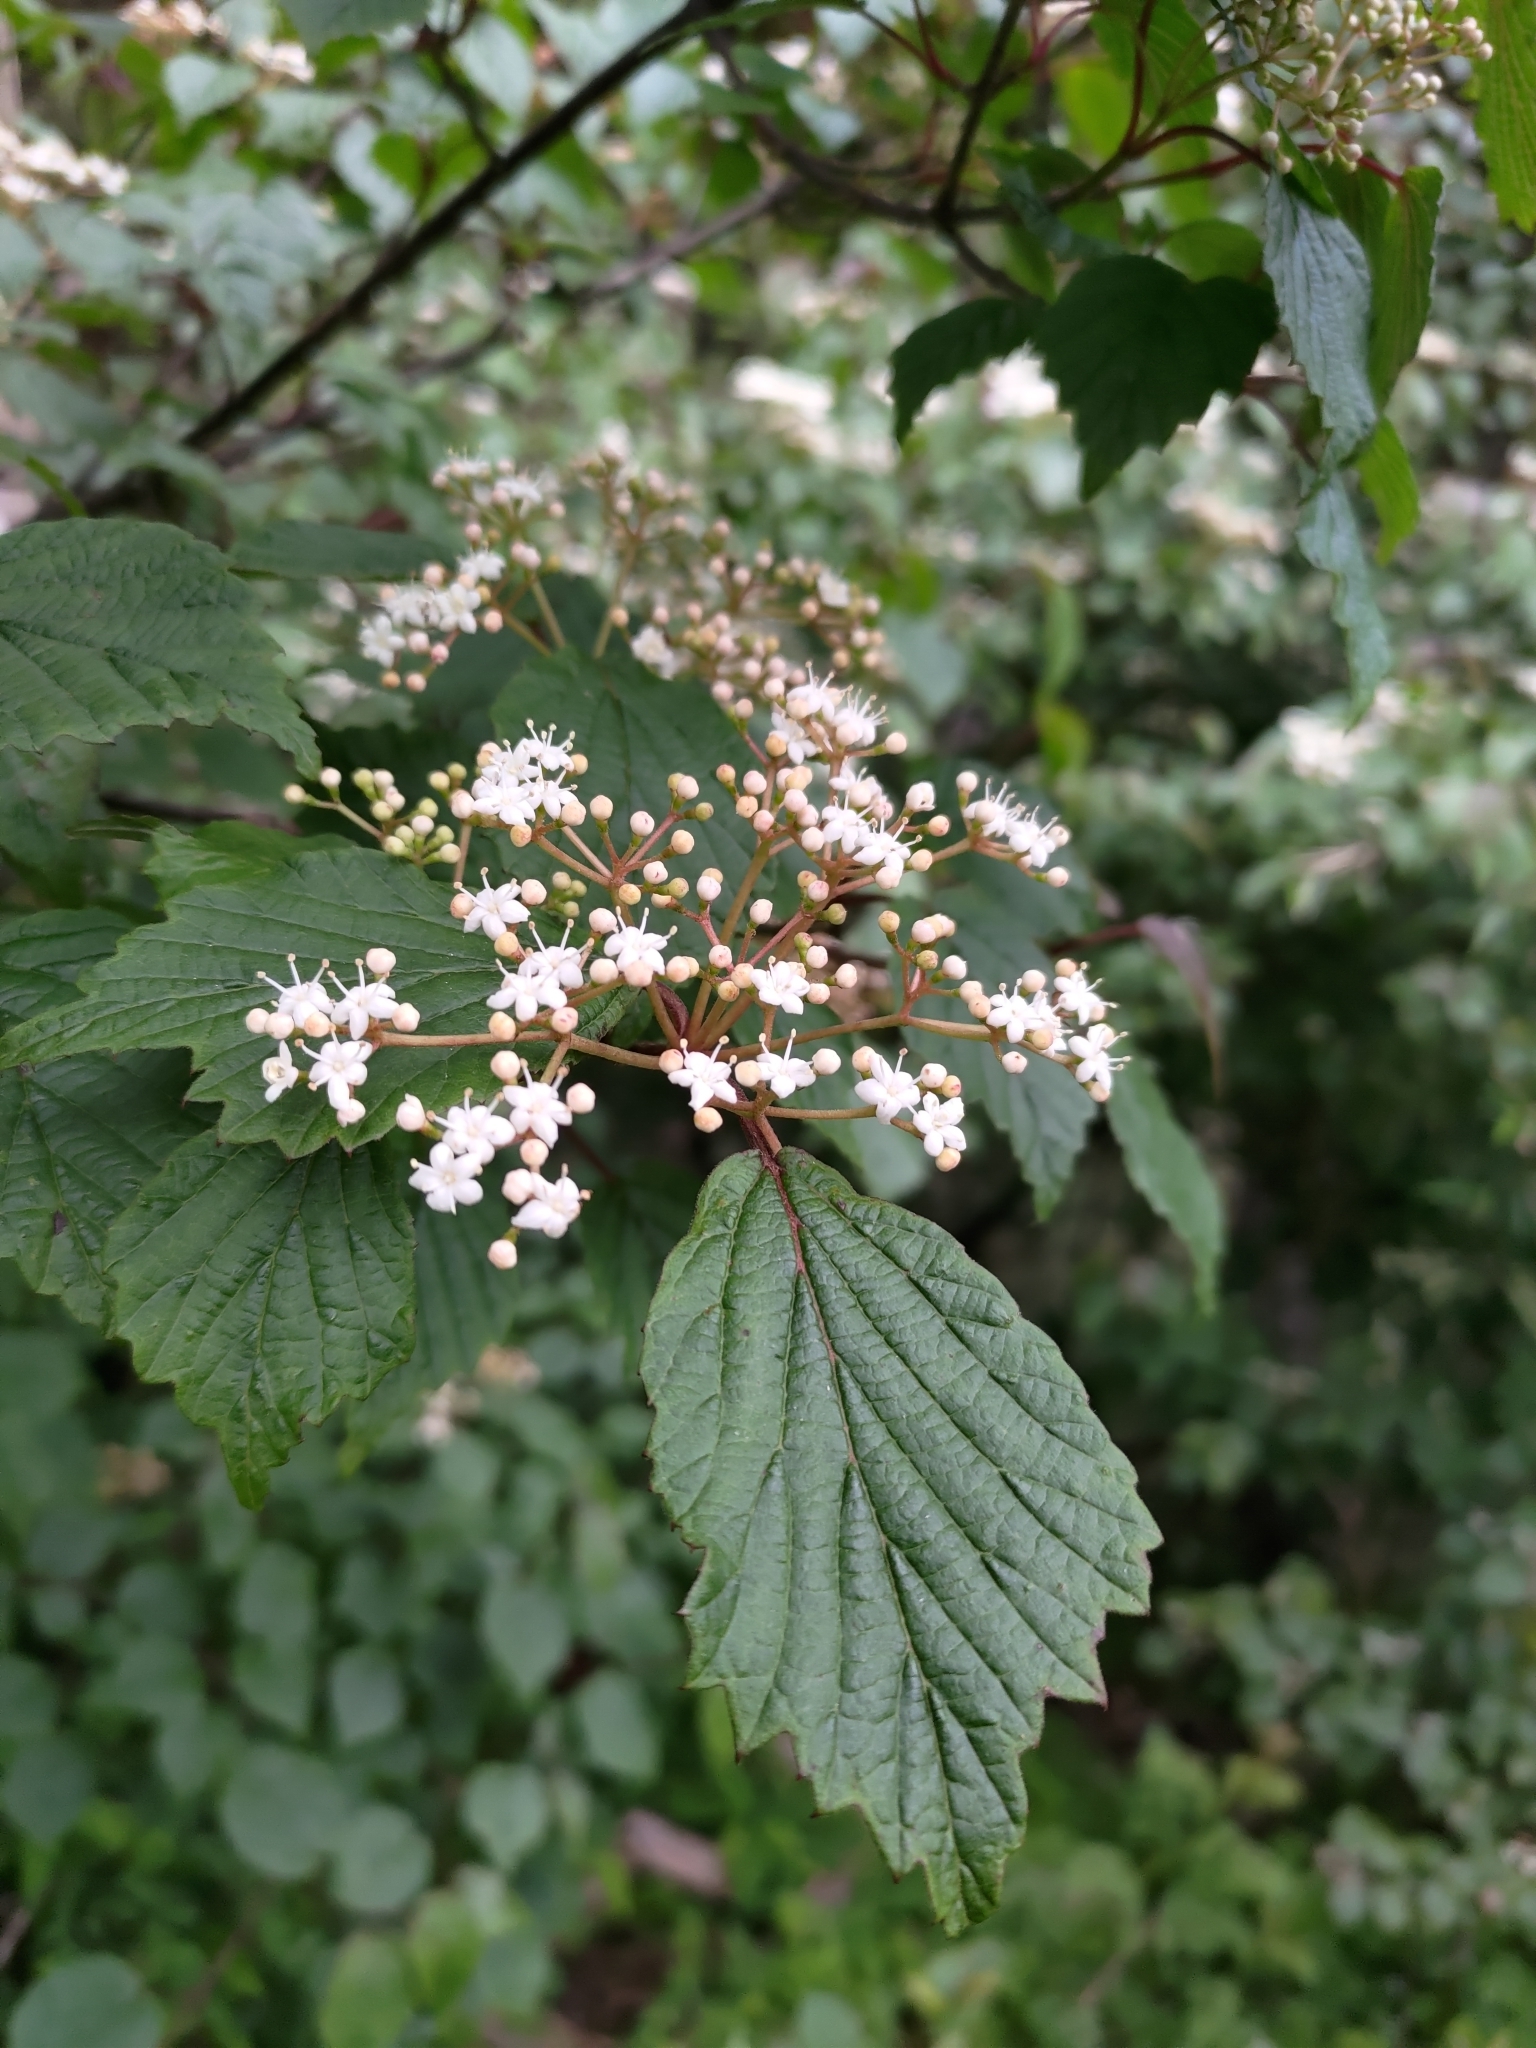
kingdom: Plantae
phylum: Tracheophyta
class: Magnoliopsida
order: Dipsacales
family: Viburnaceae
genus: Viburnum
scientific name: Viburnum betulifolium
